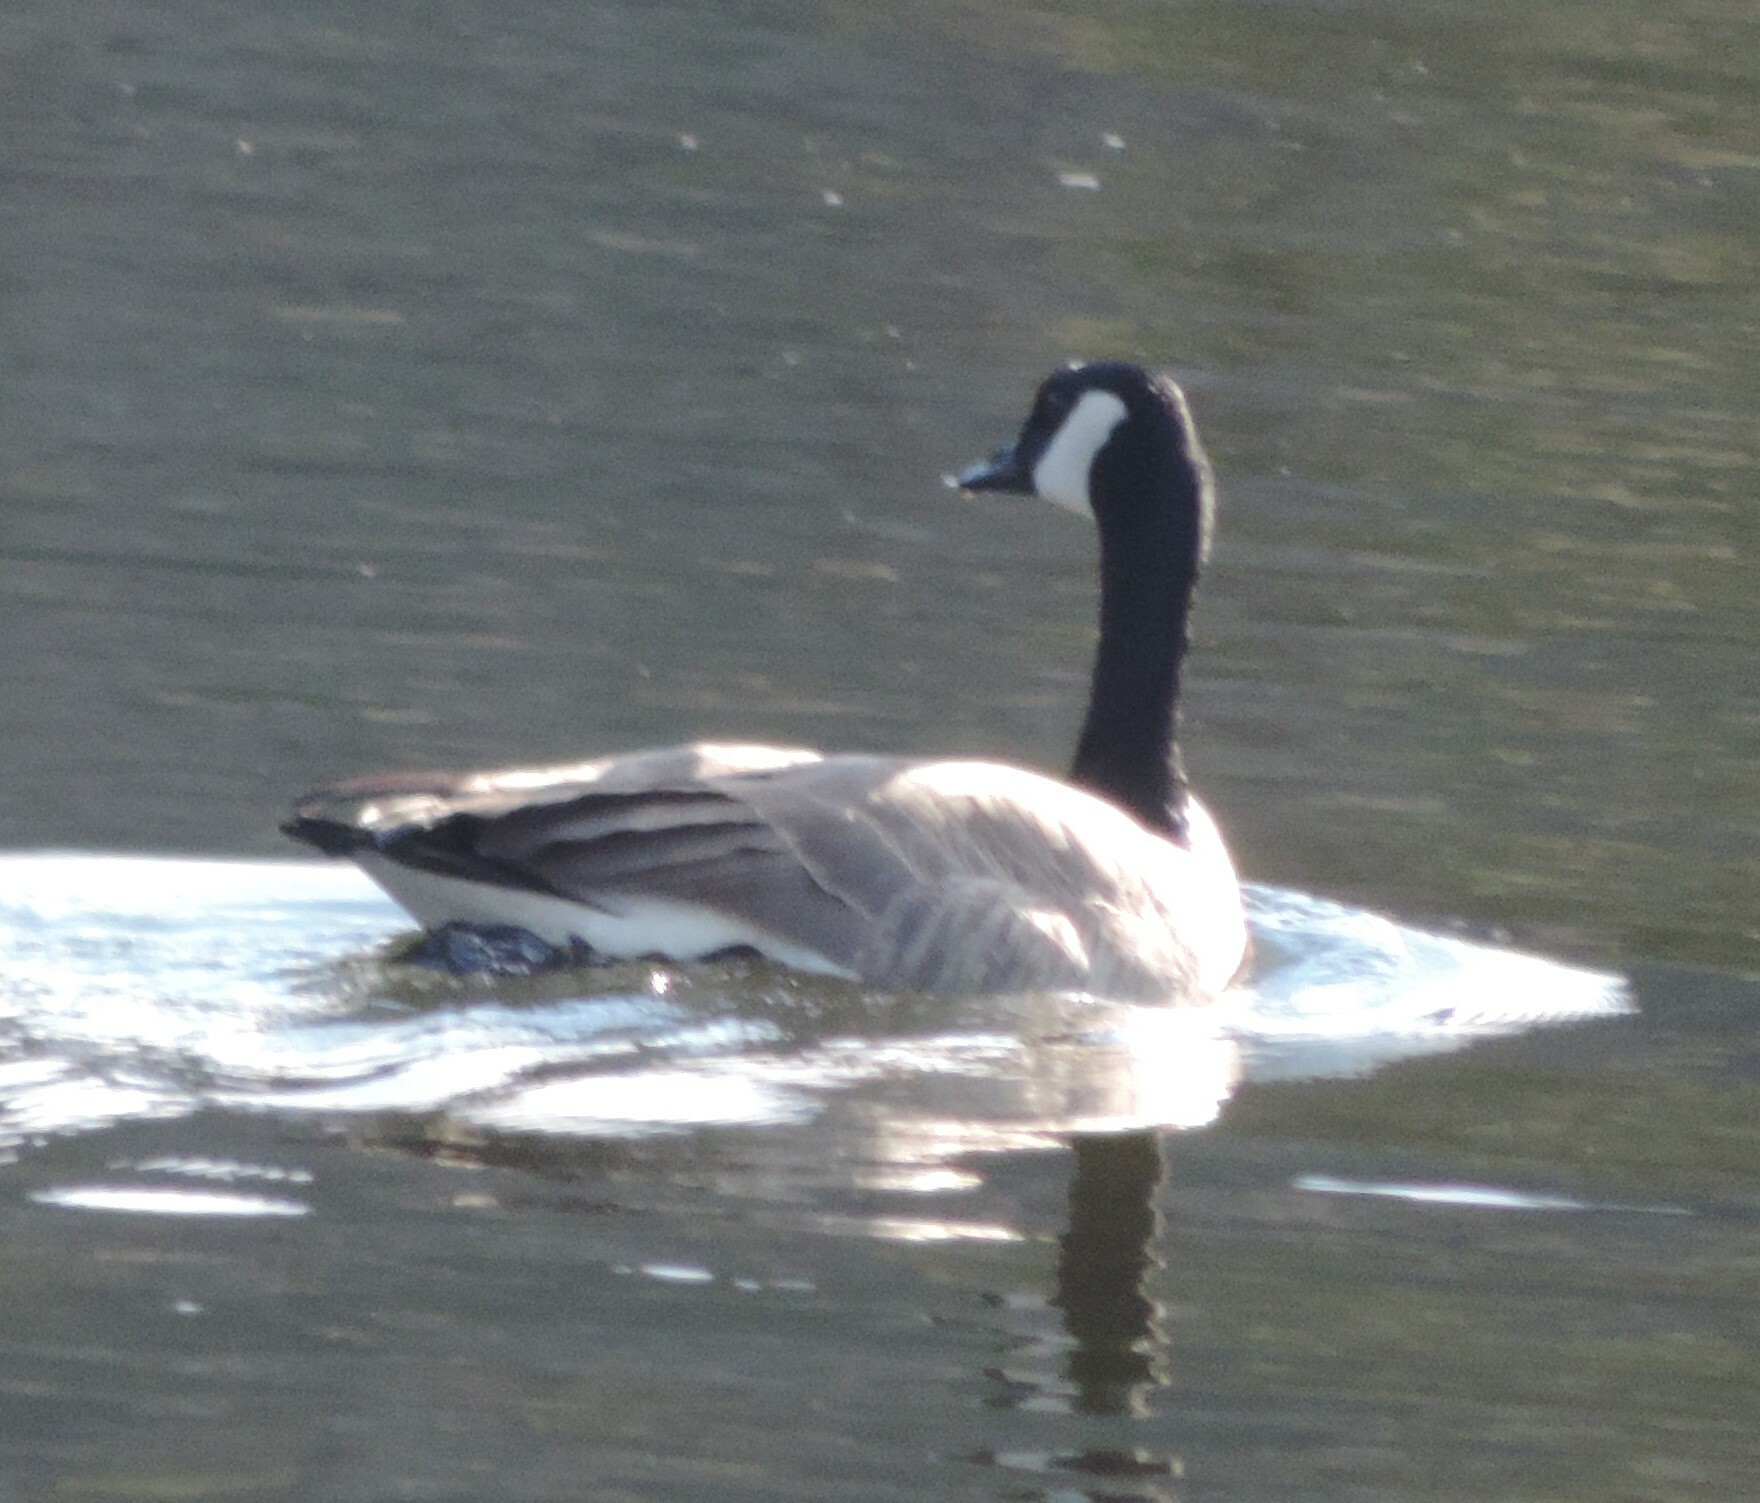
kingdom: Animalia
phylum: Chordata
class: Aves
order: Anseriformes
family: Anatidae
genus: Branta
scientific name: Branta canadensis
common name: Canada goose
